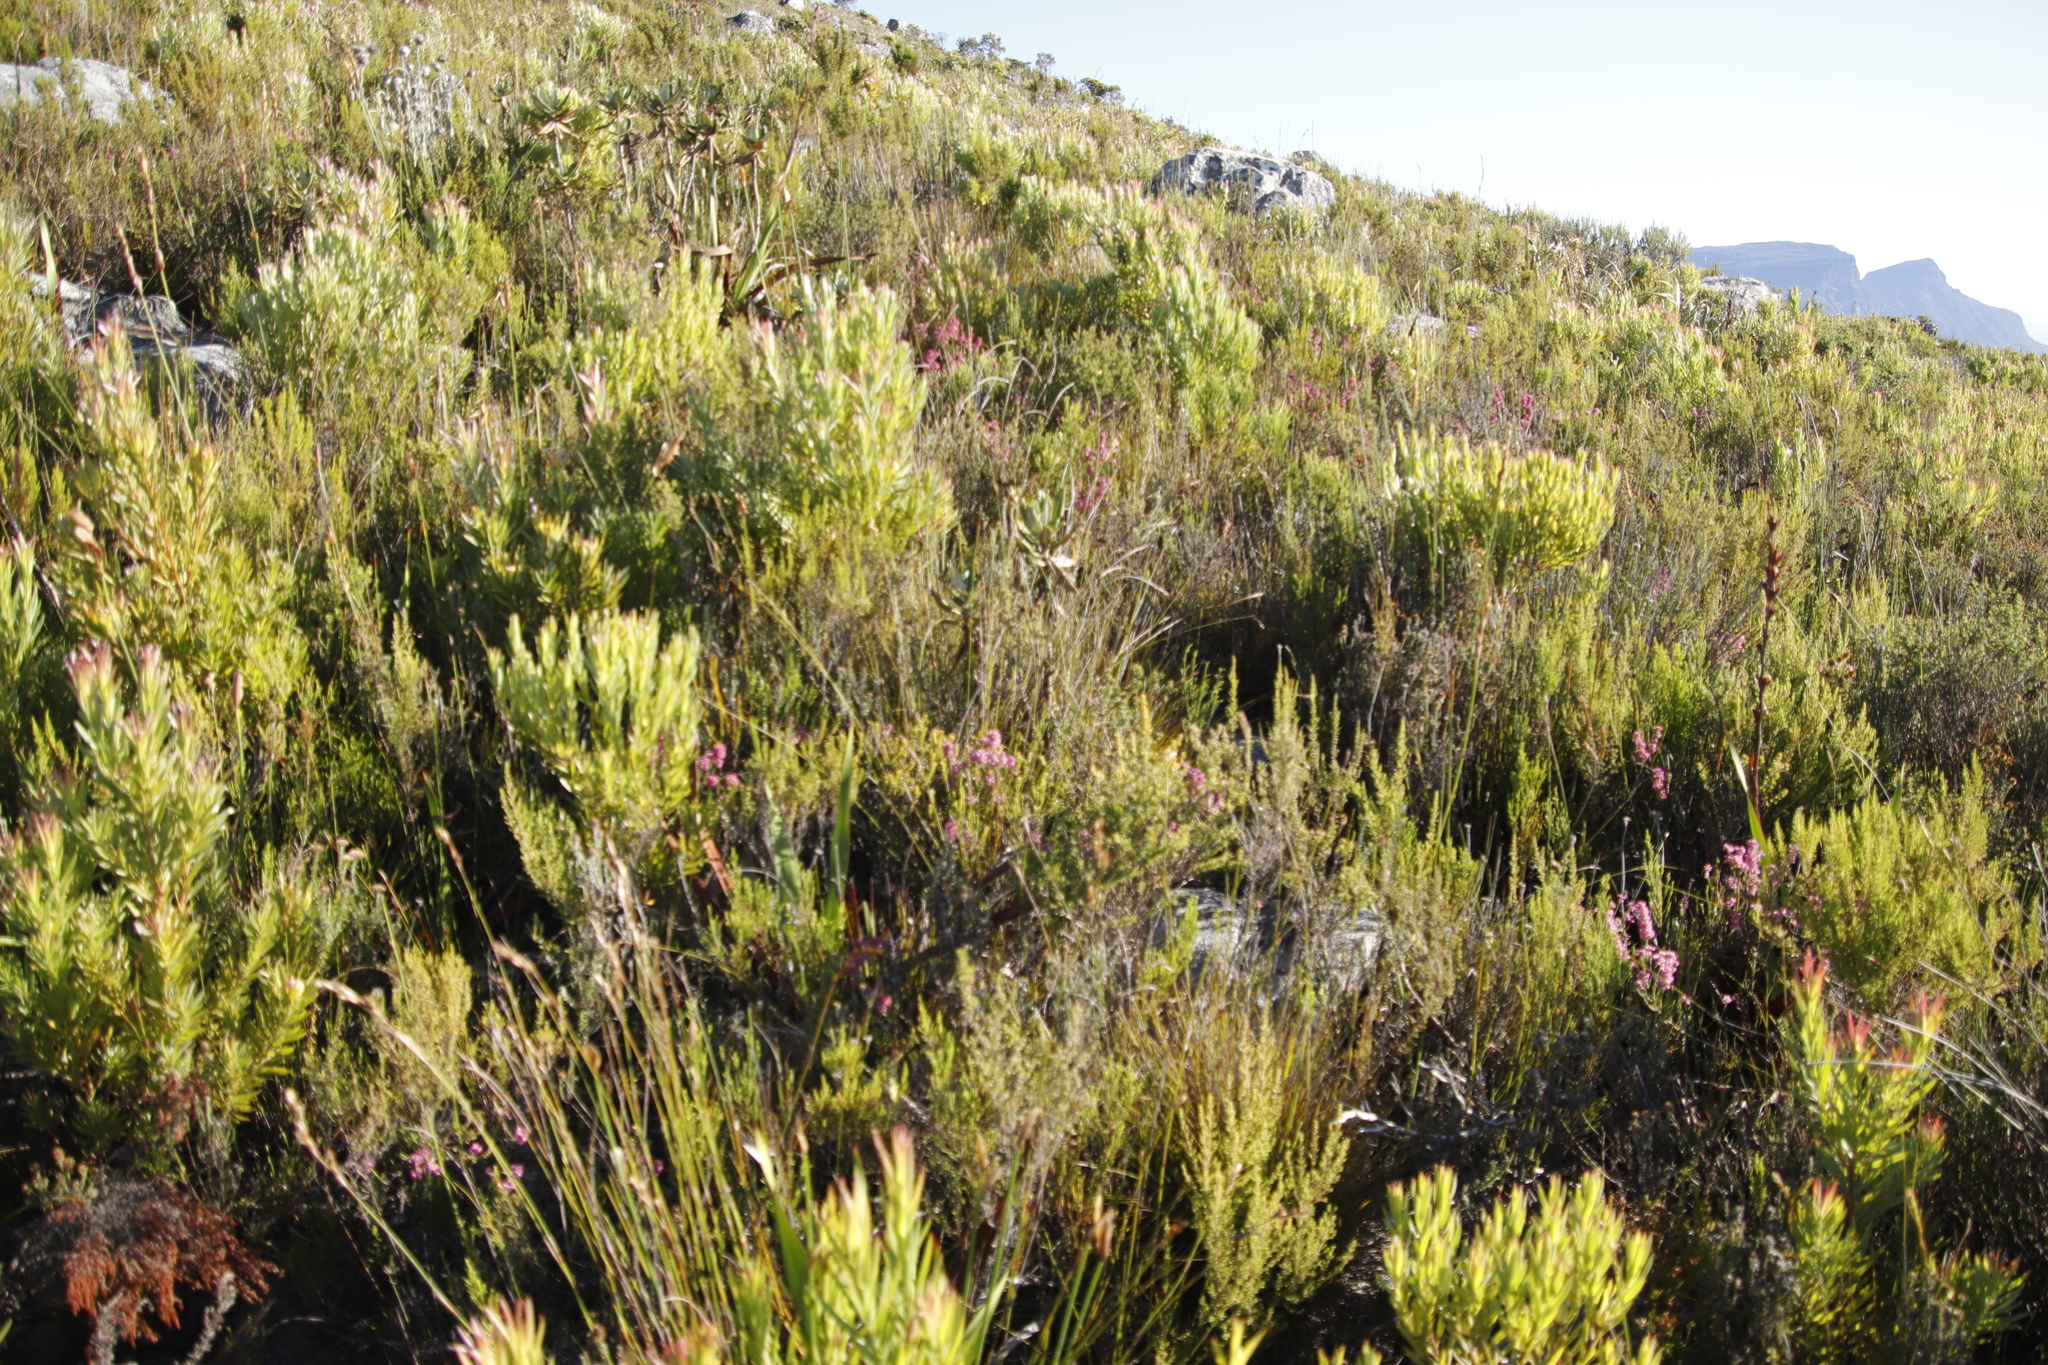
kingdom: Plantae
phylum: Tracheophyta
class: Magnoliopsida
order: Ericales
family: Ericaceae
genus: Erica
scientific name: Erica corifolia
